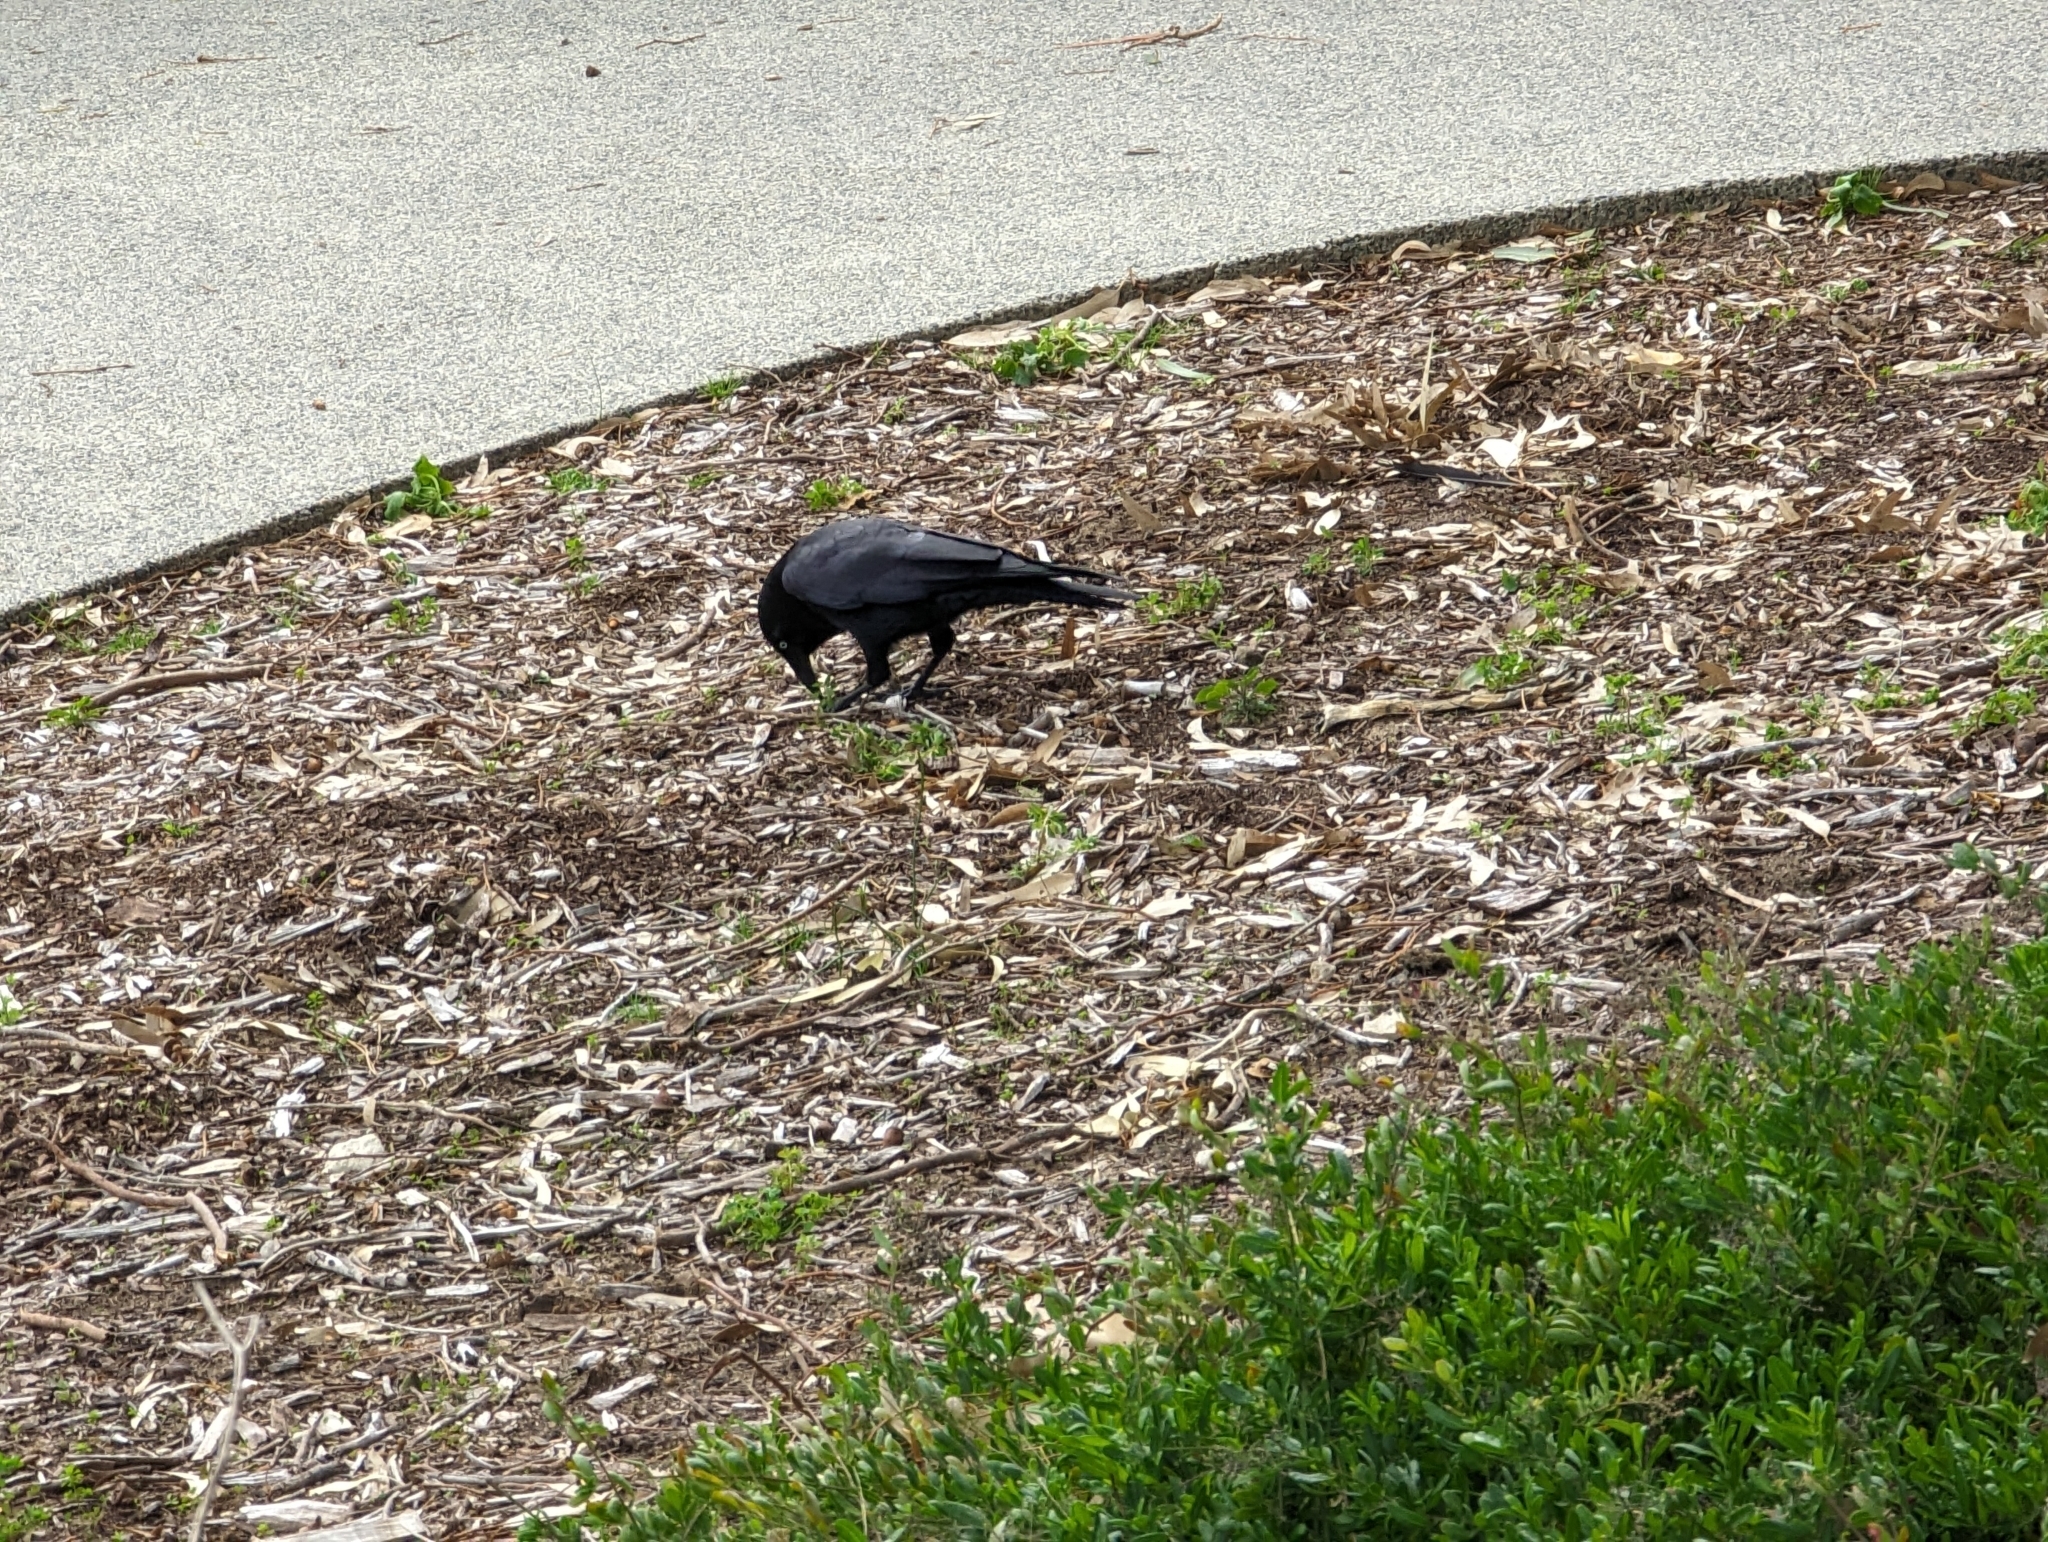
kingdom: Animalia
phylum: Chordata
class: Aves
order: Passeriformes
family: Corvidae
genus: Corvus
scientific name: Corvus coronoides
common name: Australian raven
